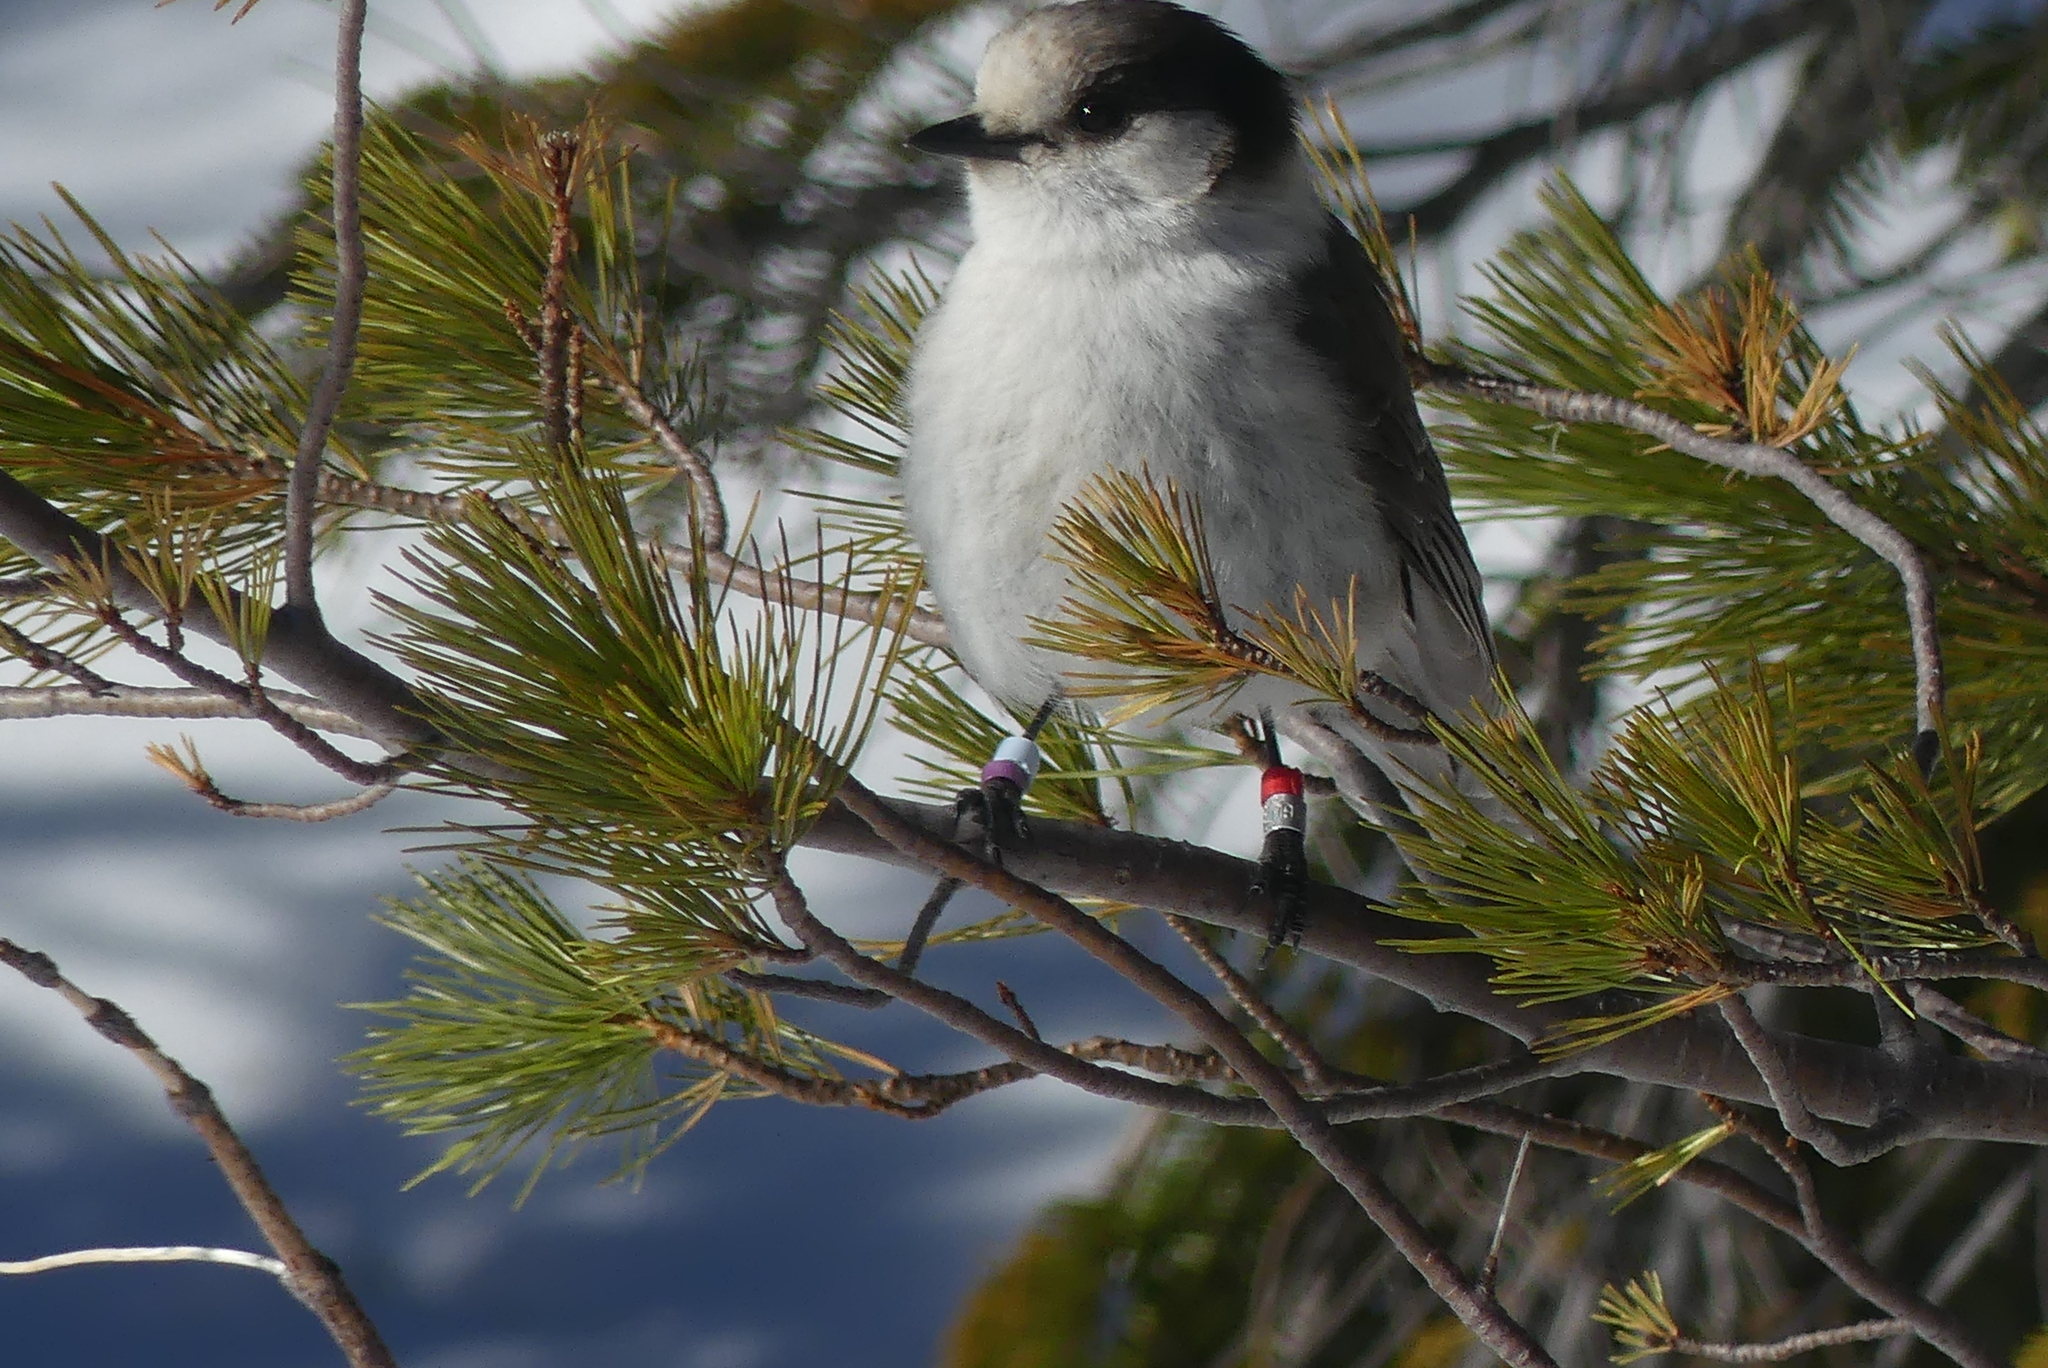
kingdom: Animalia
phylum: Chordata
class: Aves
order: Passeriformes
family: Corvidae
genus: Perisoreus
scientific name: Perisoreus canadensis
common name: Gray jay
